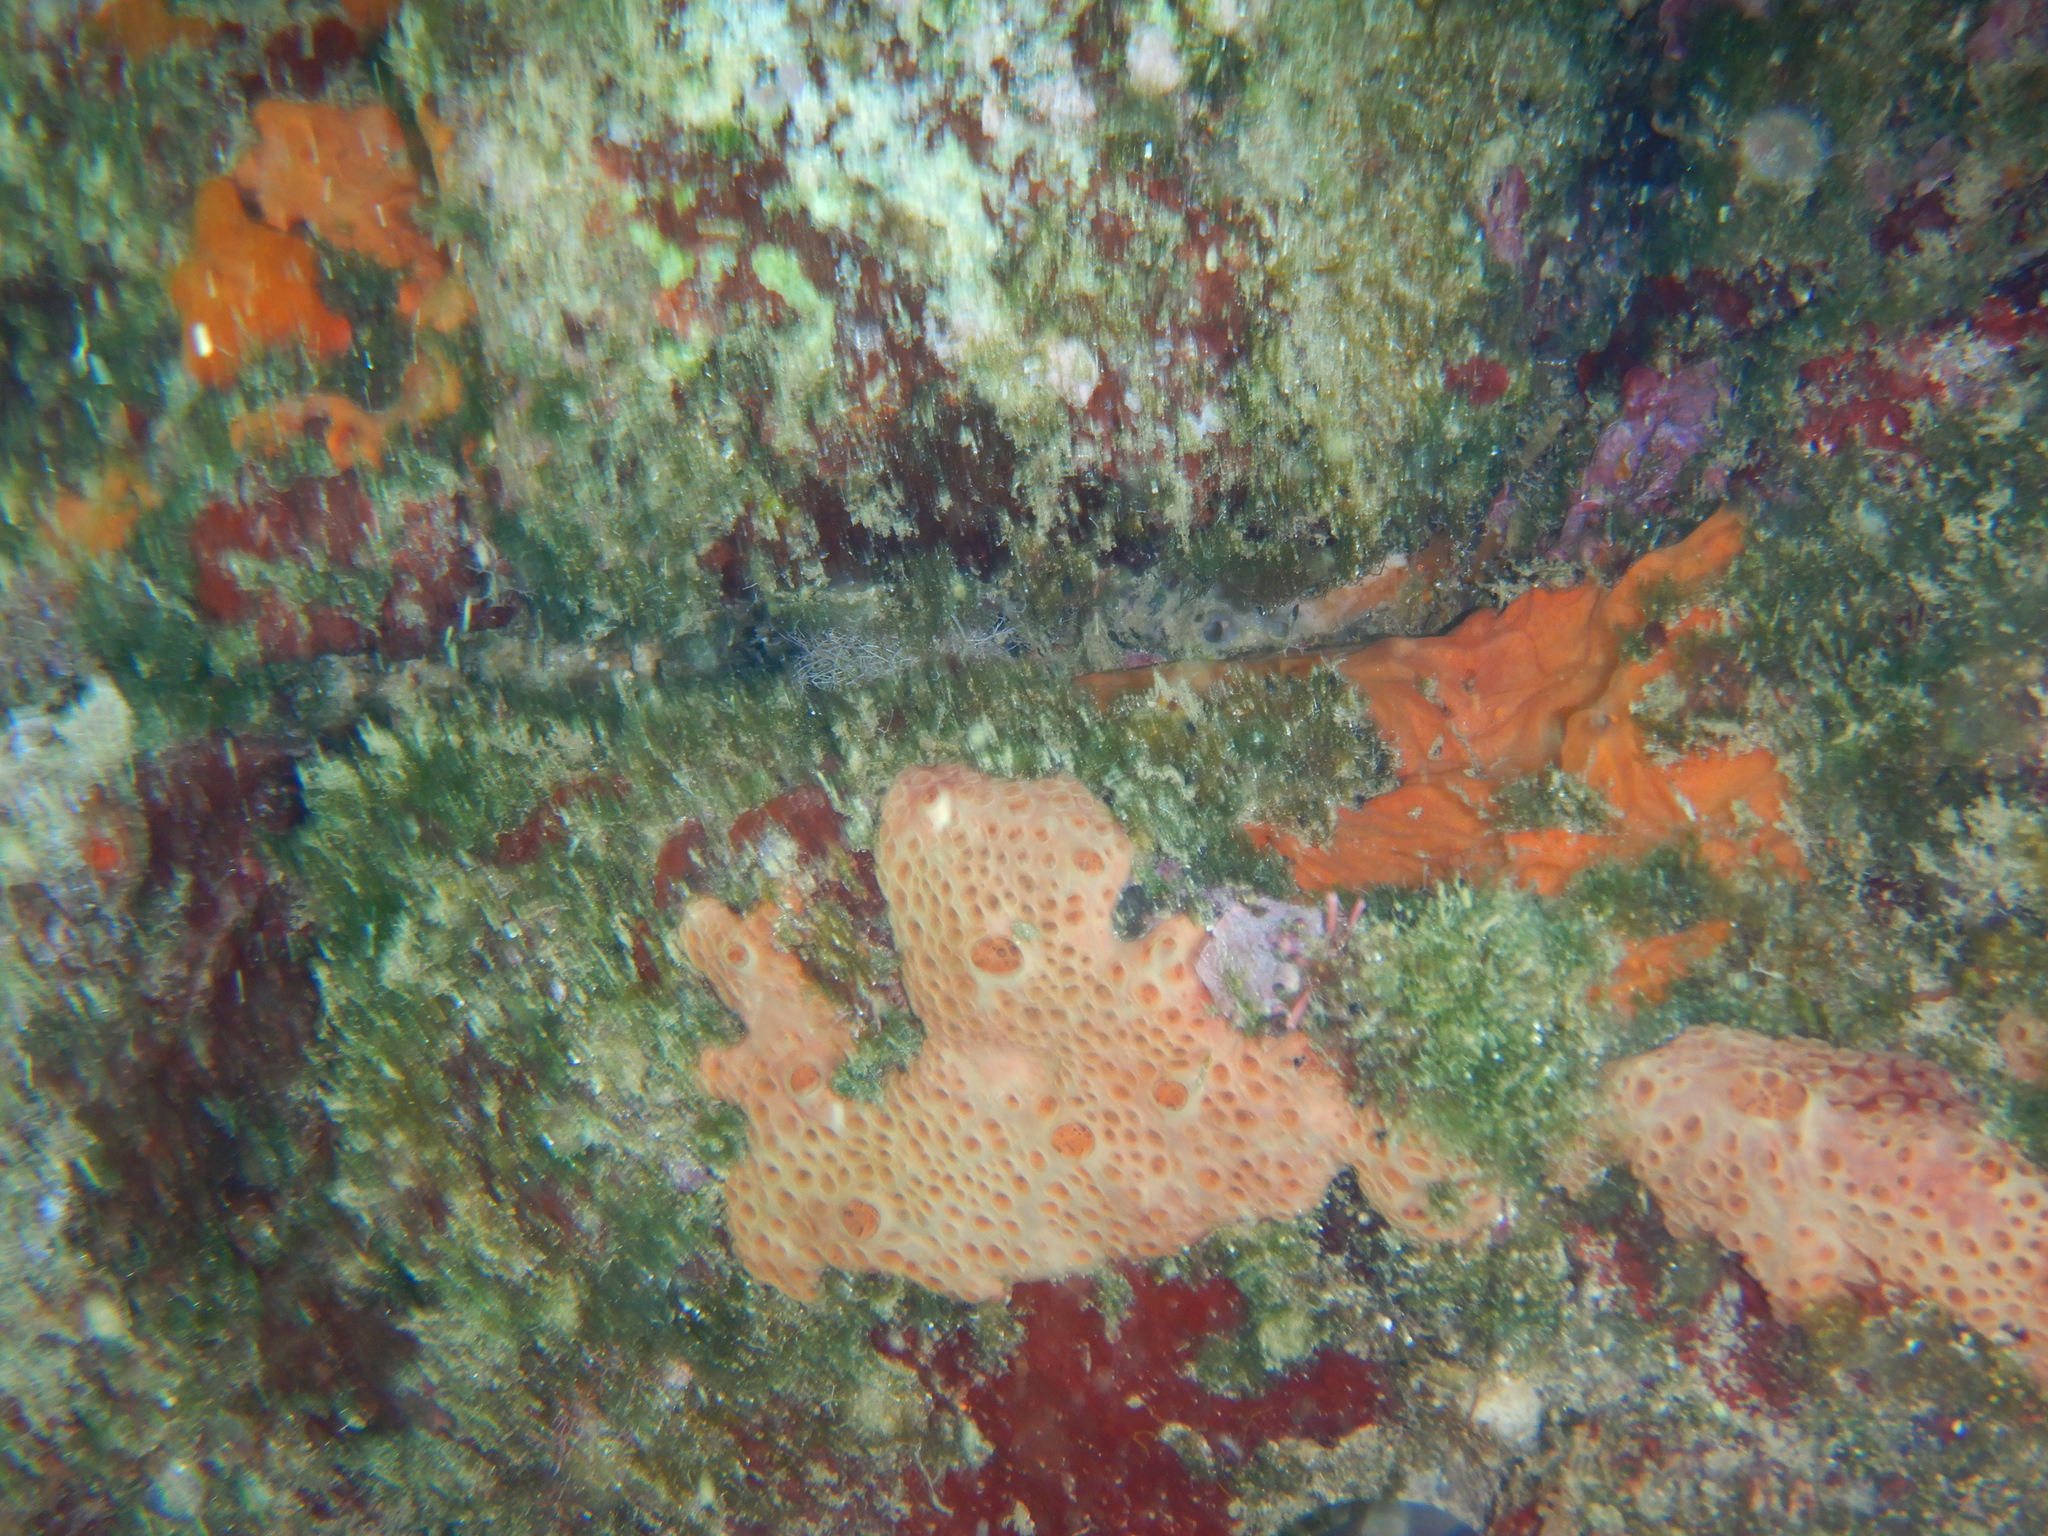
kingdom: Animalia
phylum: Porifera
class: Demospongiae
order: Poecilosclerida
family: Hymedesmiidae
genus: Hemimycale
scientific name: Hemimycale columella
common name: Crater sponge
